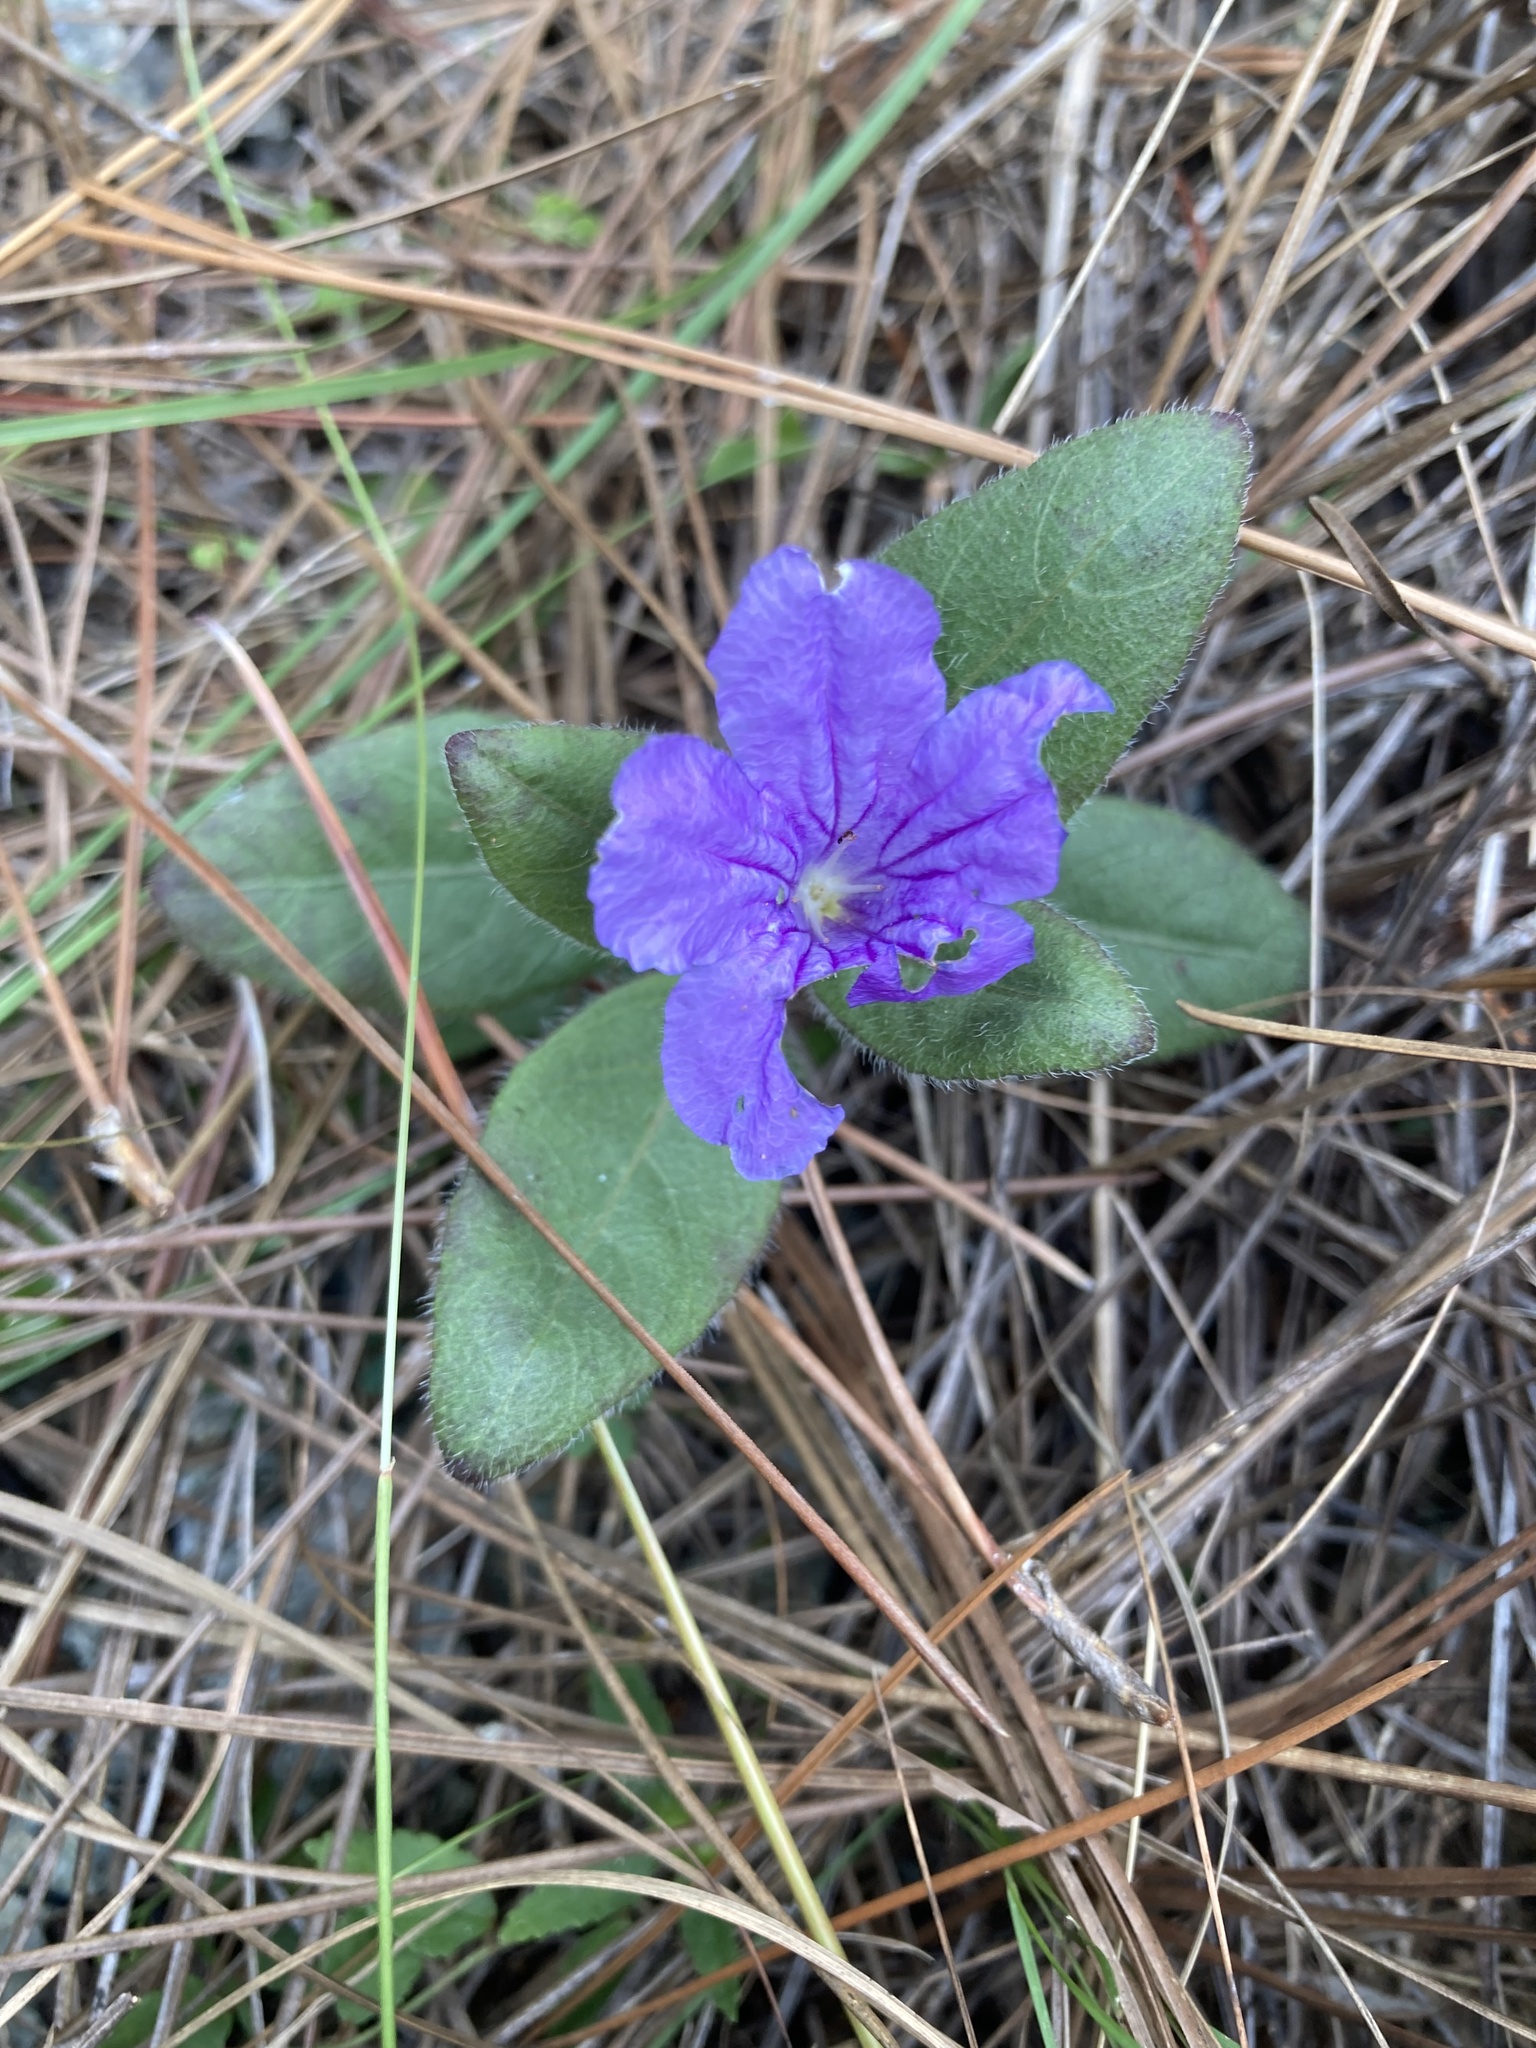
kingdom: Plantae
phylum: Tracheophyta
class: Magnoliopsida
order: Lamiales
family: Acanthaceae
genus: Ruellia
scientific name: Ruellia caroliniensis
